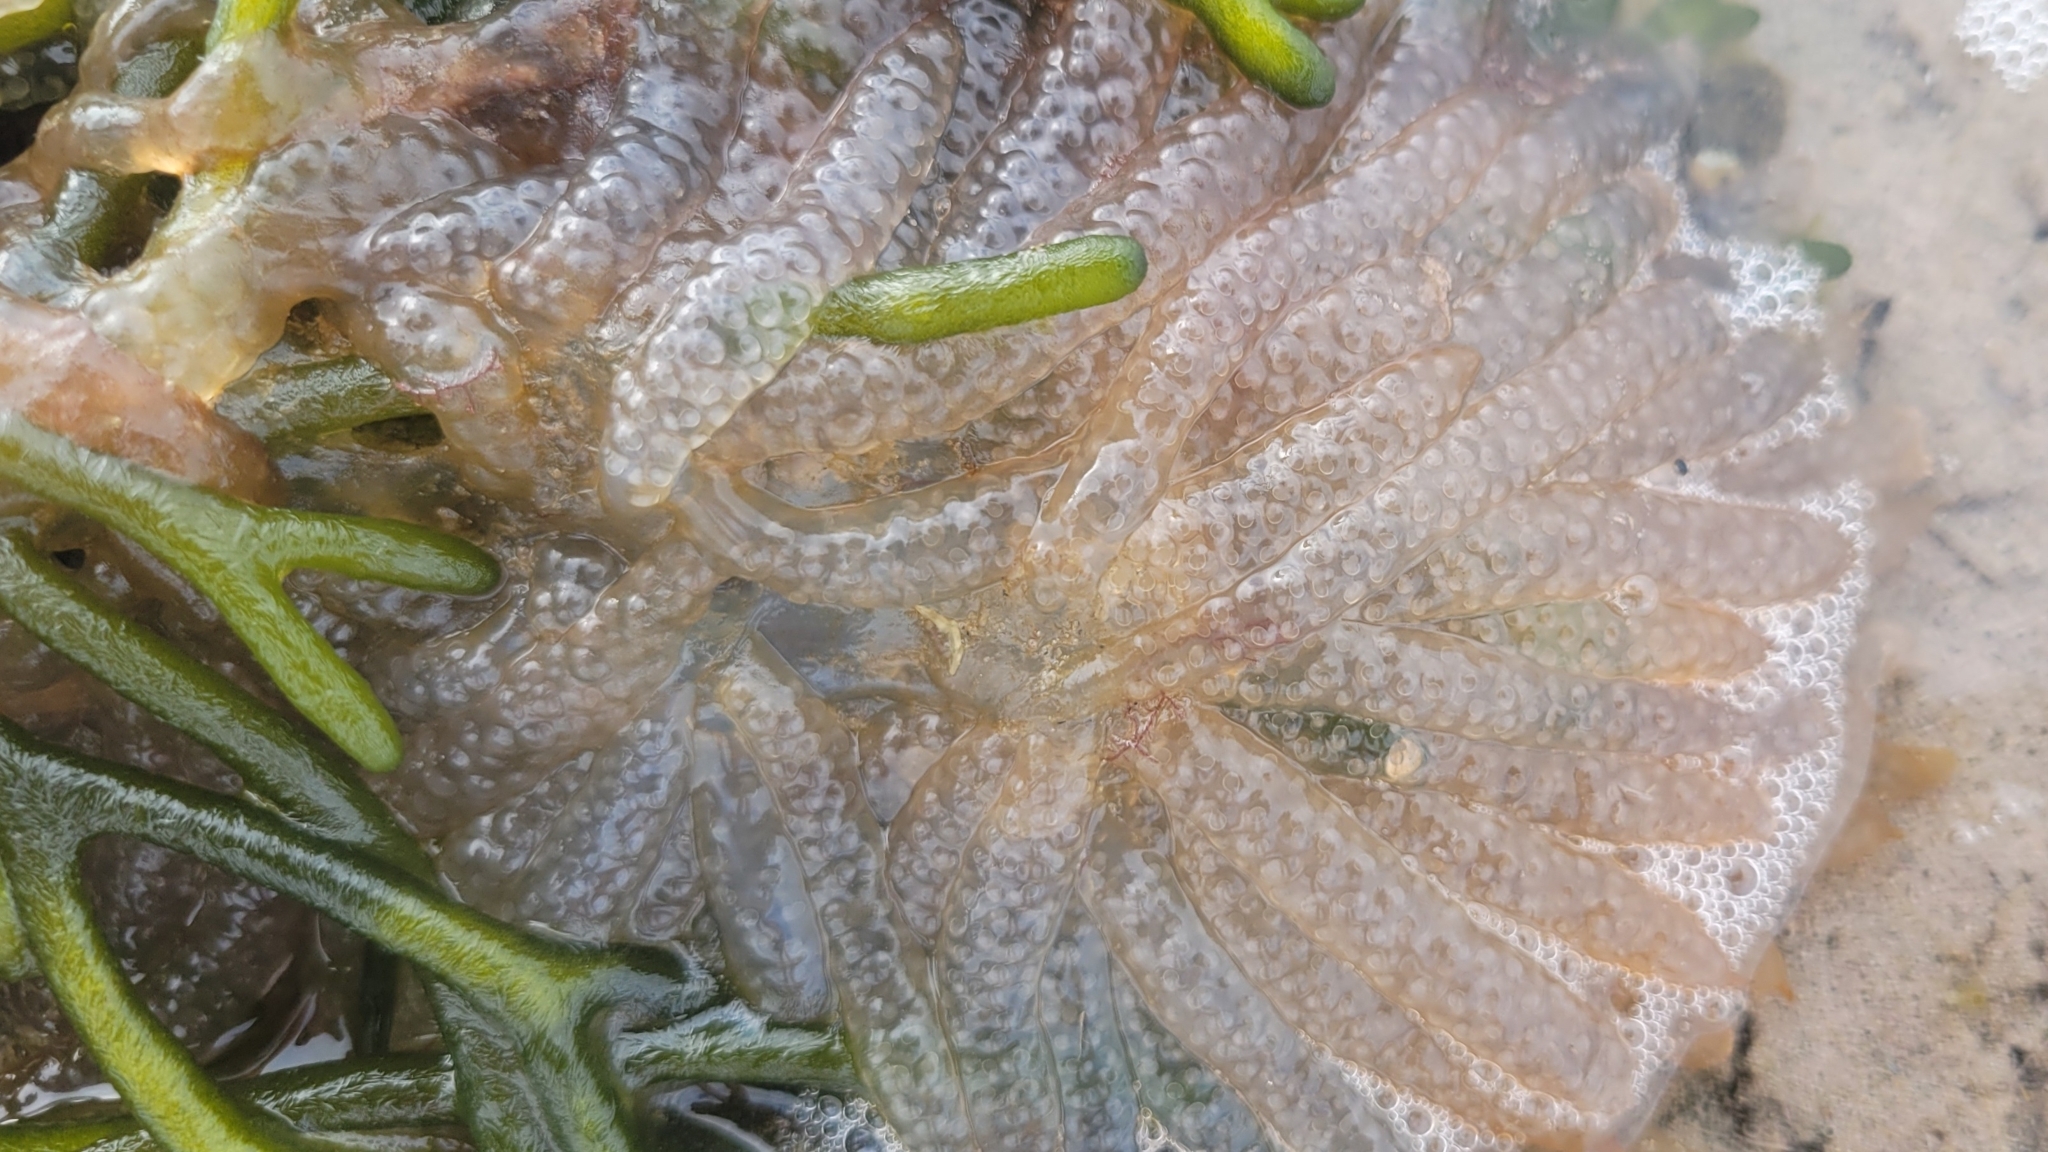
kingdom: Animalia
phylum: Mollusca
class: Cephalopoda
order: Myopsida
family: Loliginidae
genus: Doryteuthis
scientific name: Doryteuthis pealeii
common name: Long-finned inshore squid
